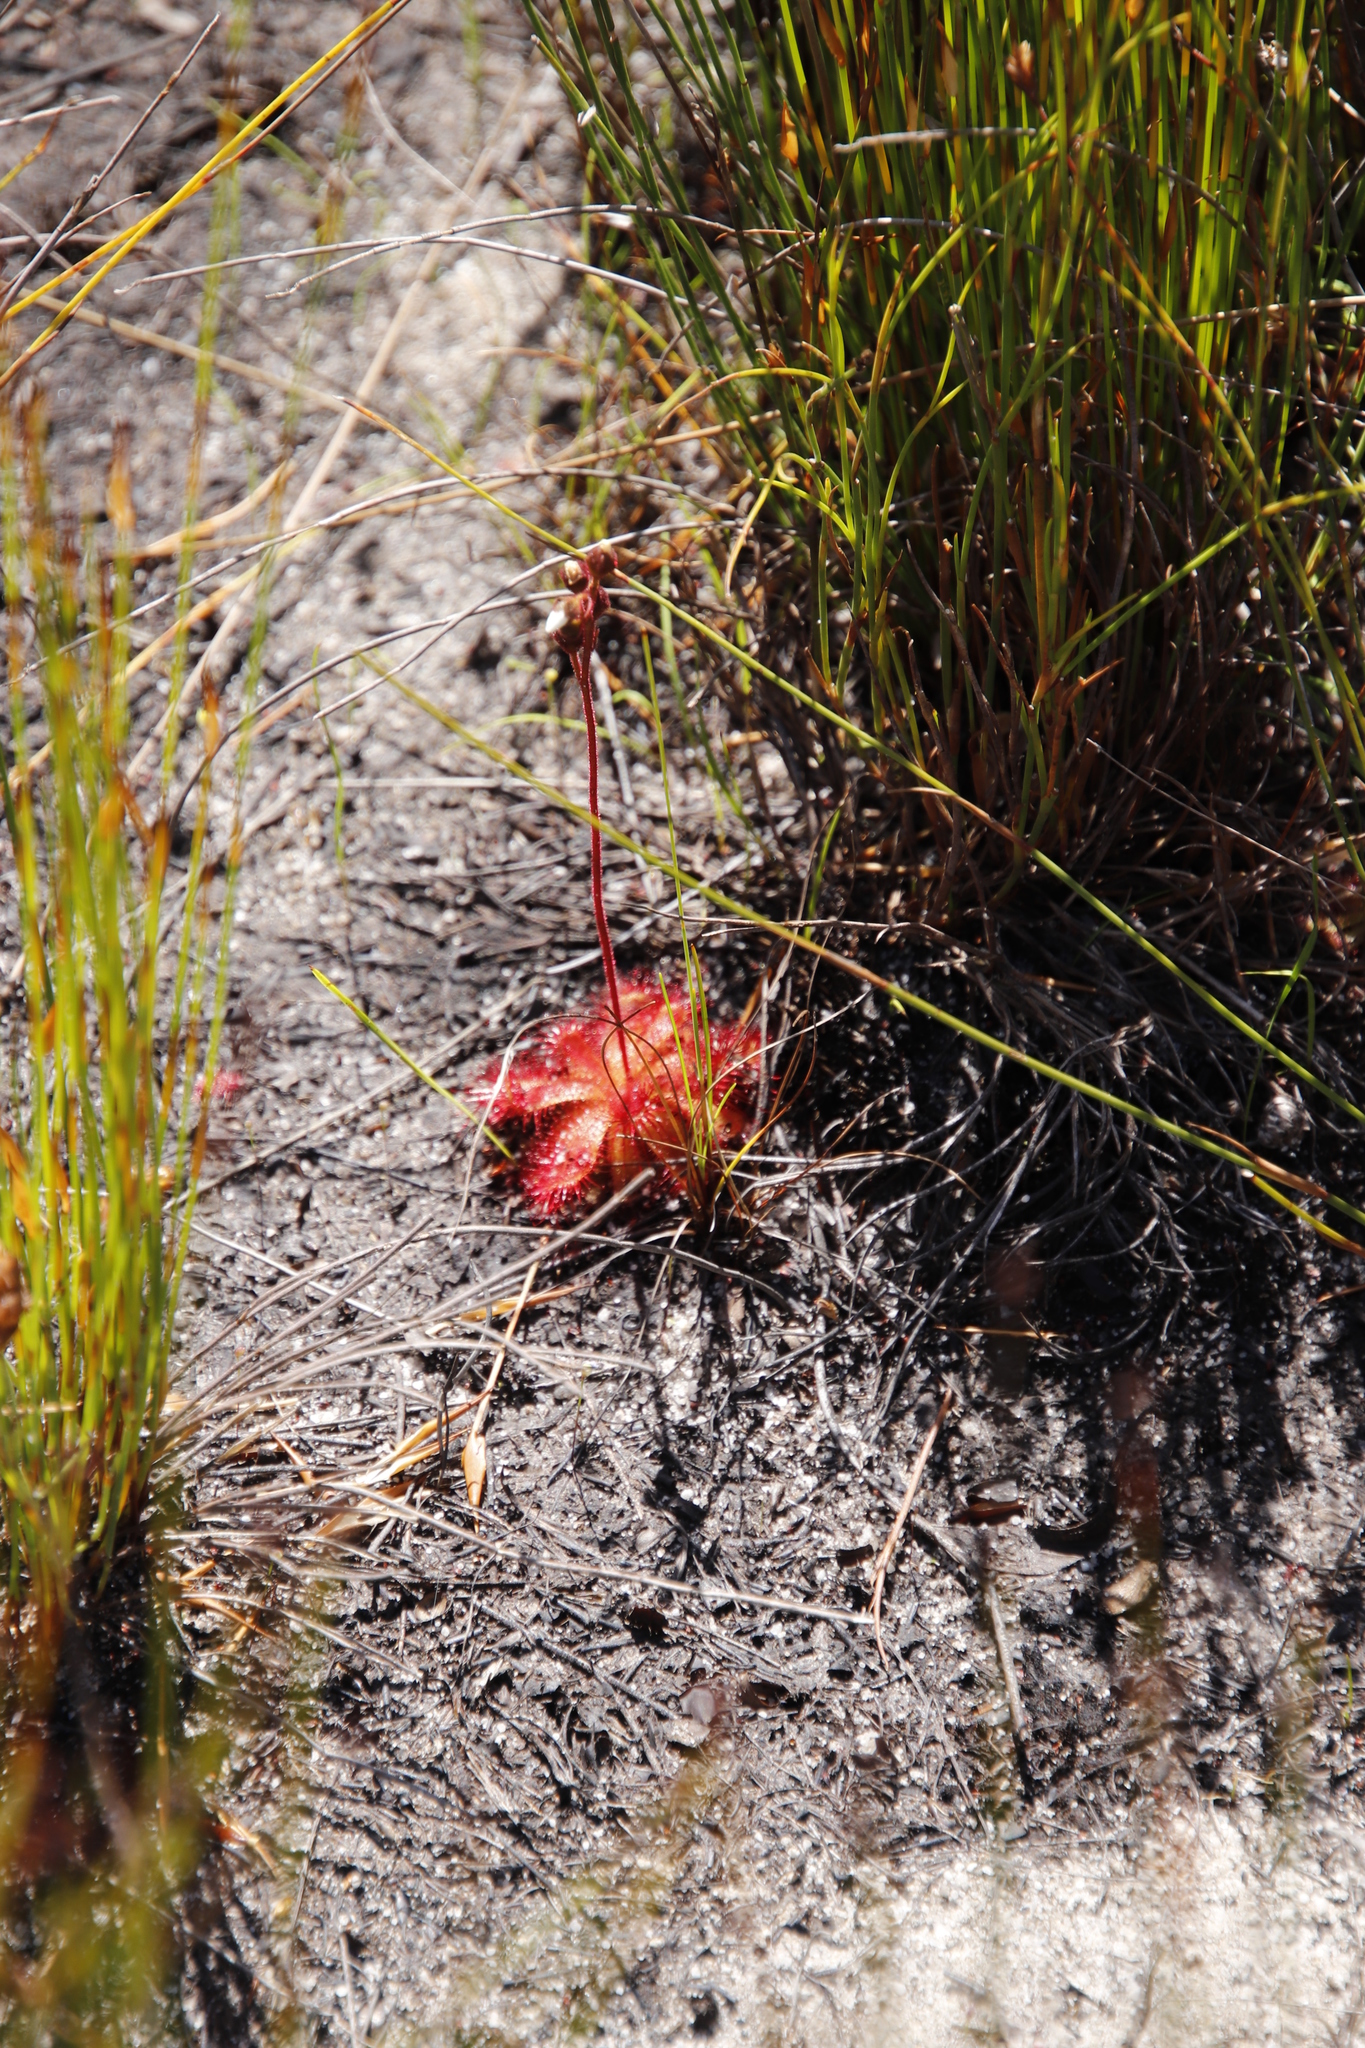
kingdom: Plantae
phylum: Tracheophyta
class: Magnoliopsida
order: Caryophyllales
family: Droseraceae
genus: Drosera
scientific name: Drosera trinervia
